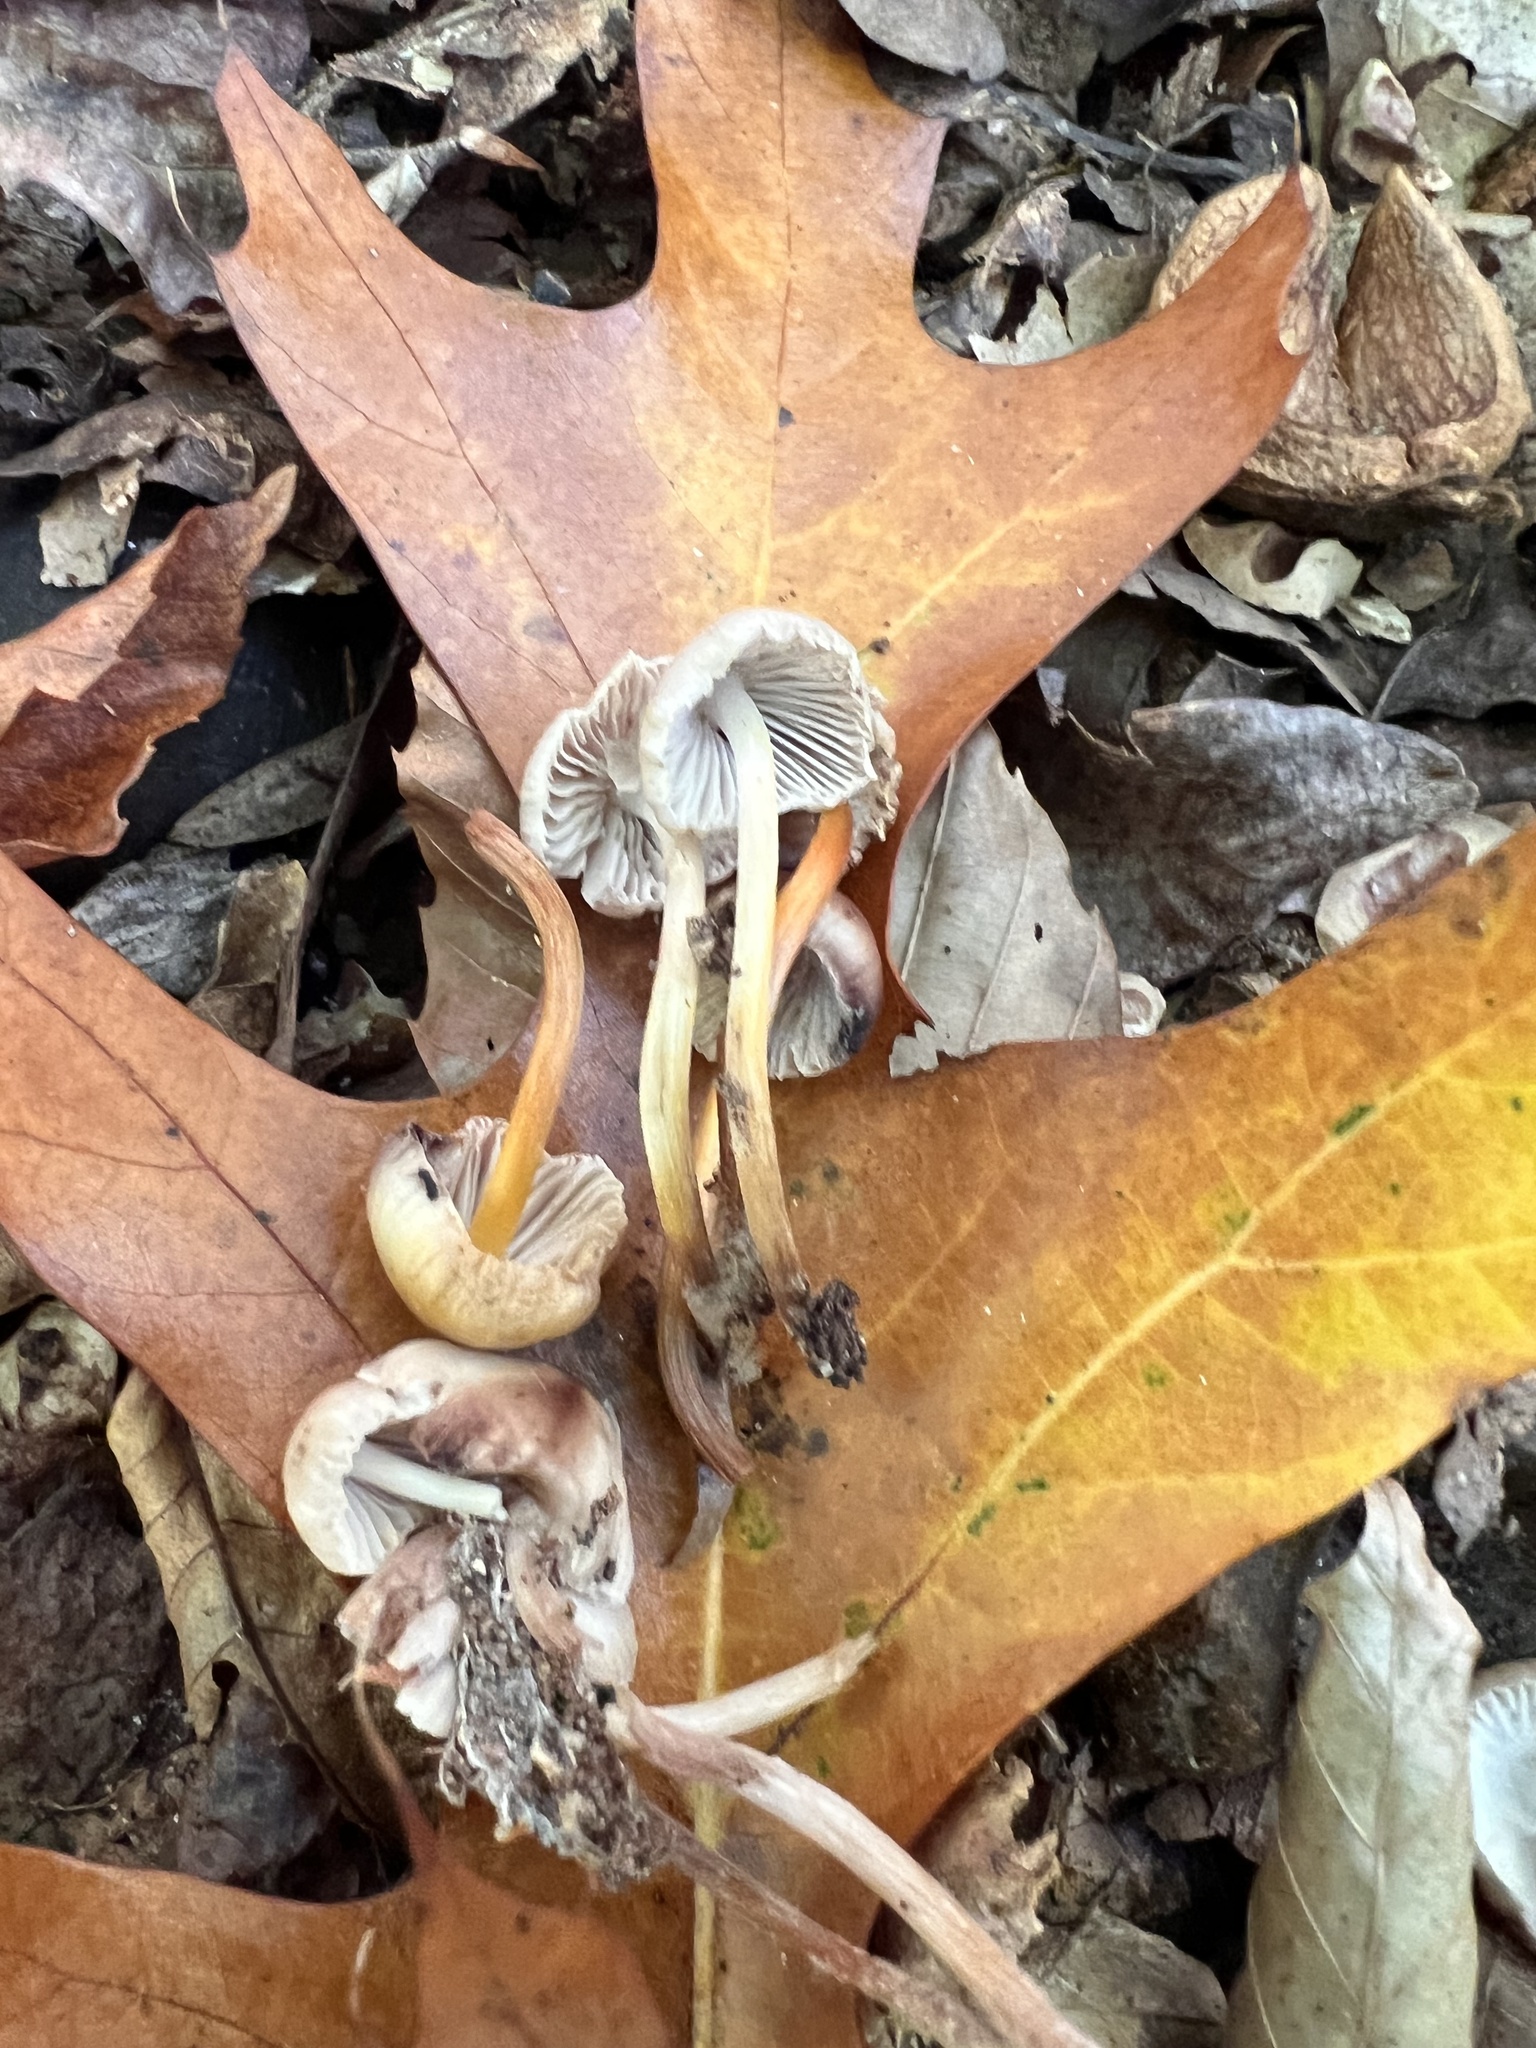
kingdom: Fungi
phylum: Basidiomycota
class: Agaricomycetes
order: Agaricales
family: Mycenaceae
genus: Mycena
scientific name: Mycena inclinata
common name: Clustered bonnet
